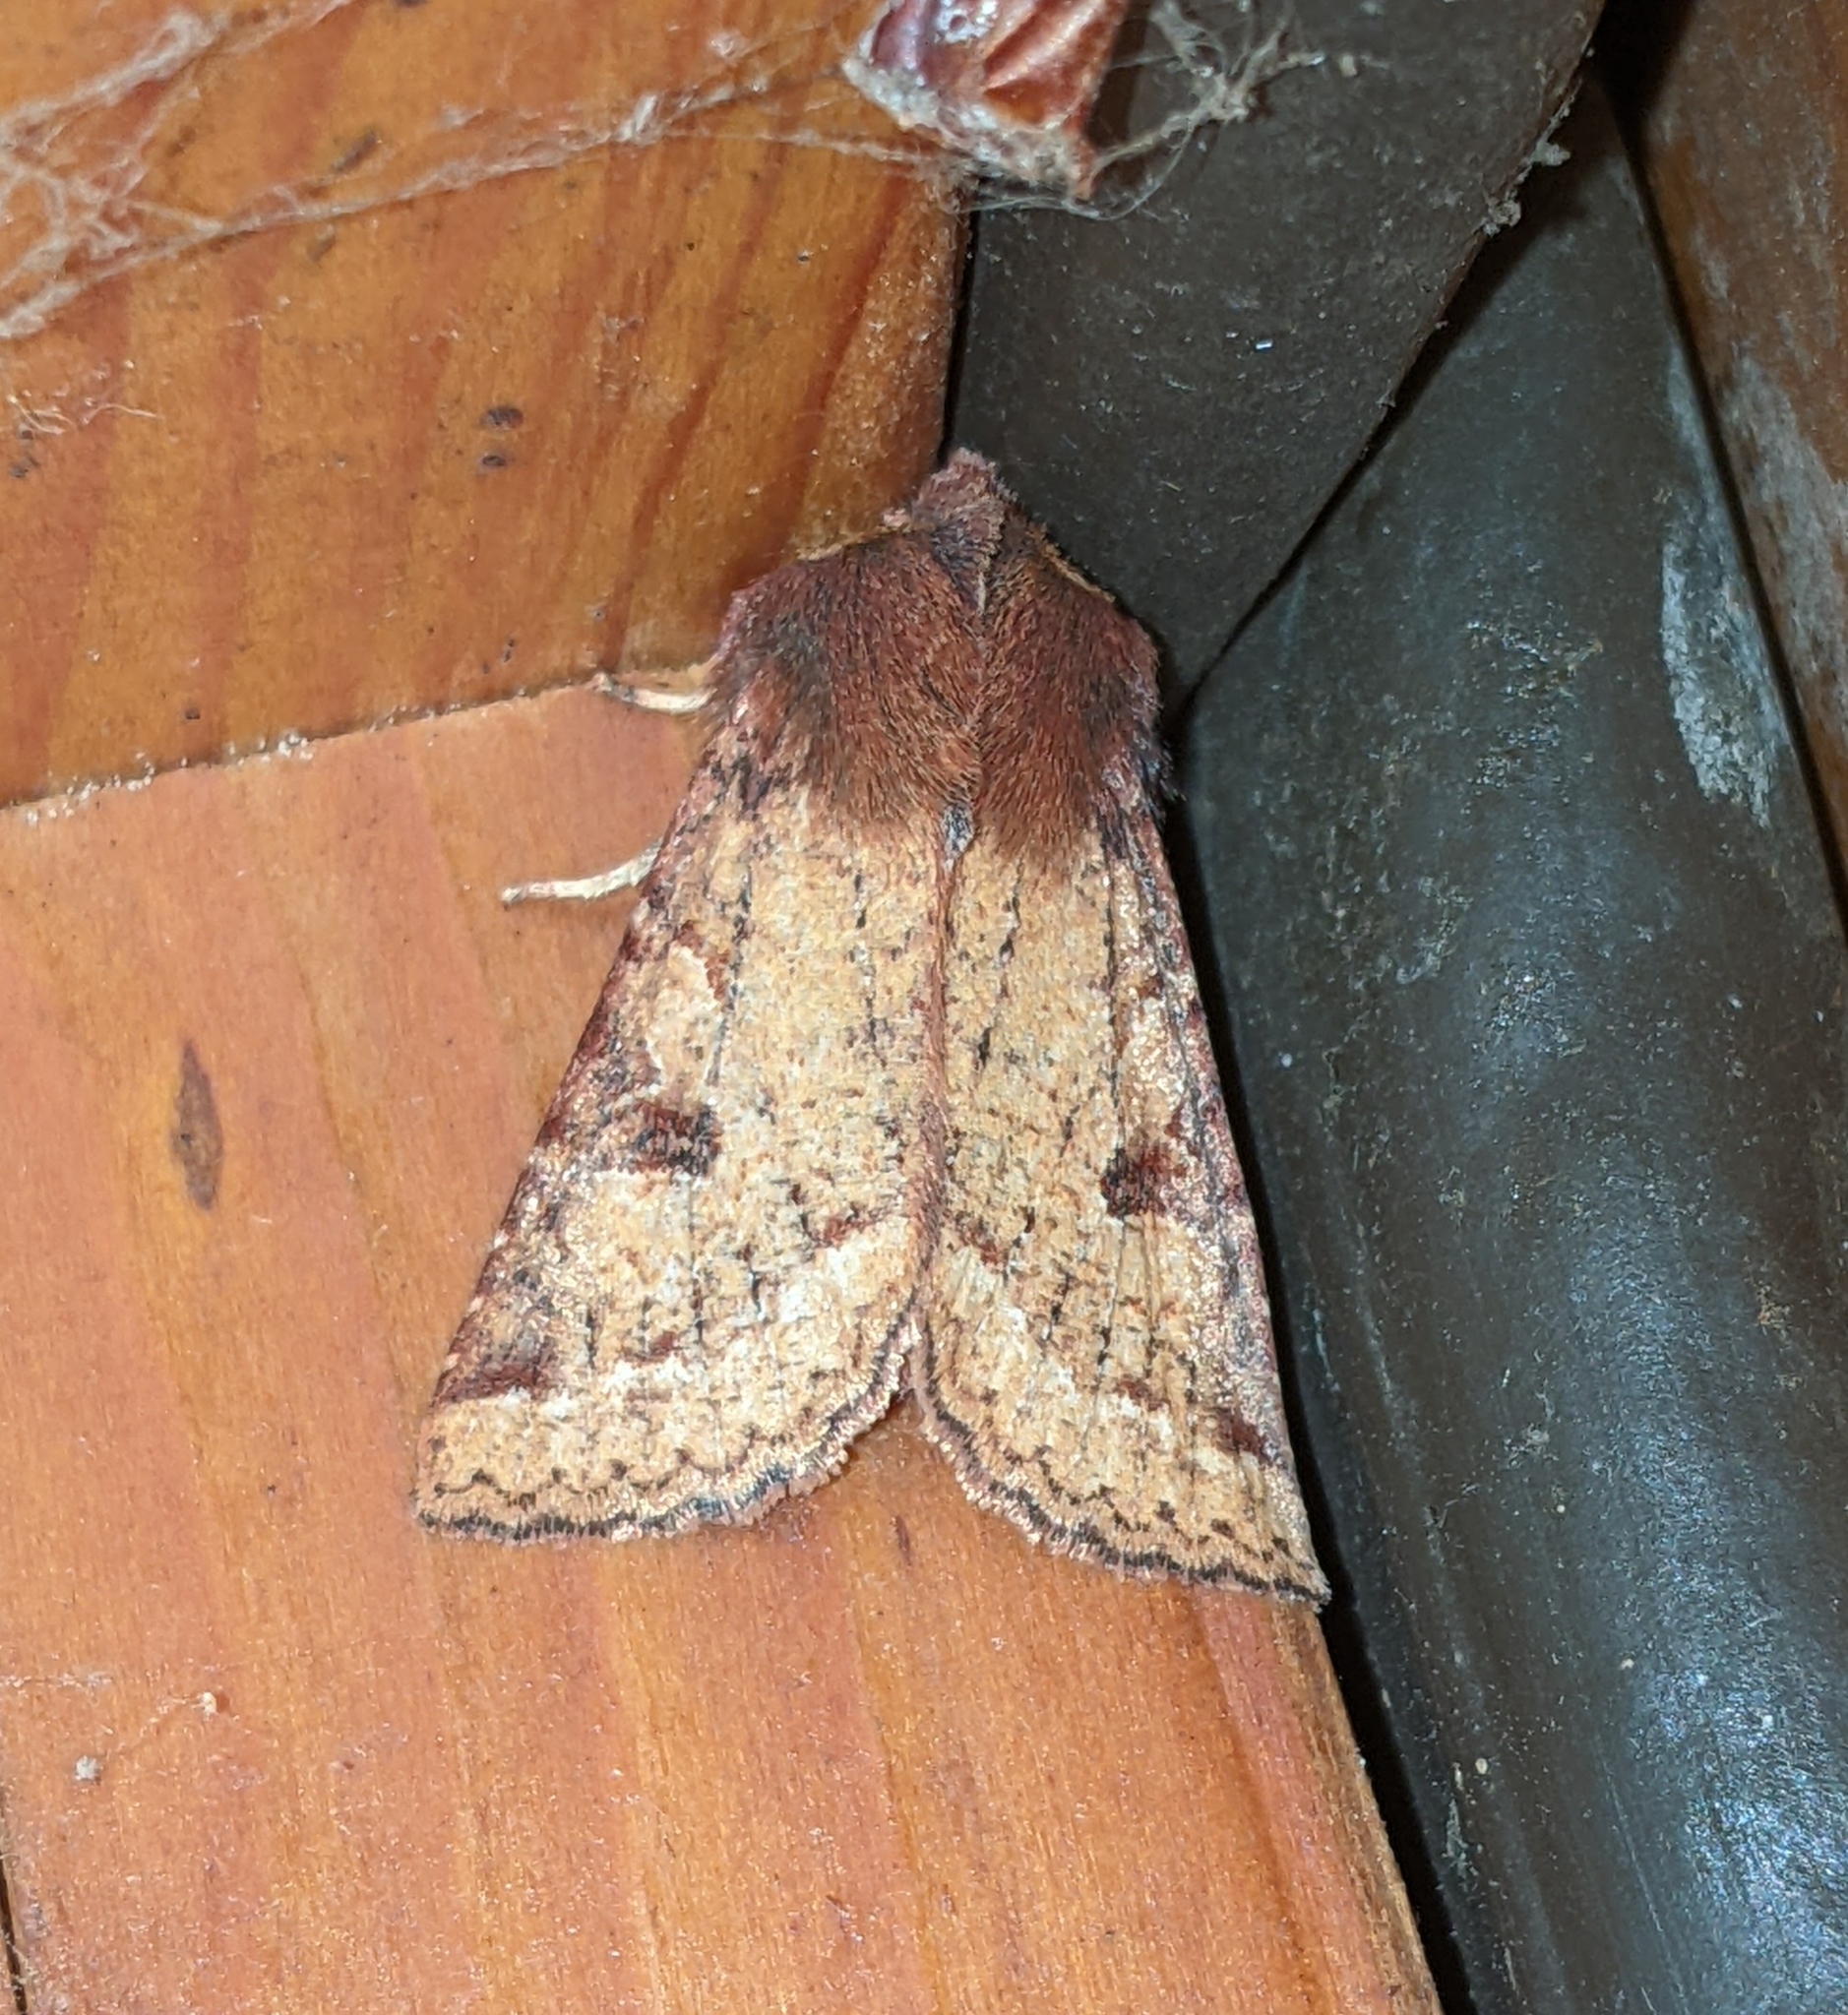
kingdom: Animalia
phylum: Arthropoda
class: Insecta
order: Lepidoptera
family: Noctuidae
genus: Orthosia
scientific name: Orthosia praeses
